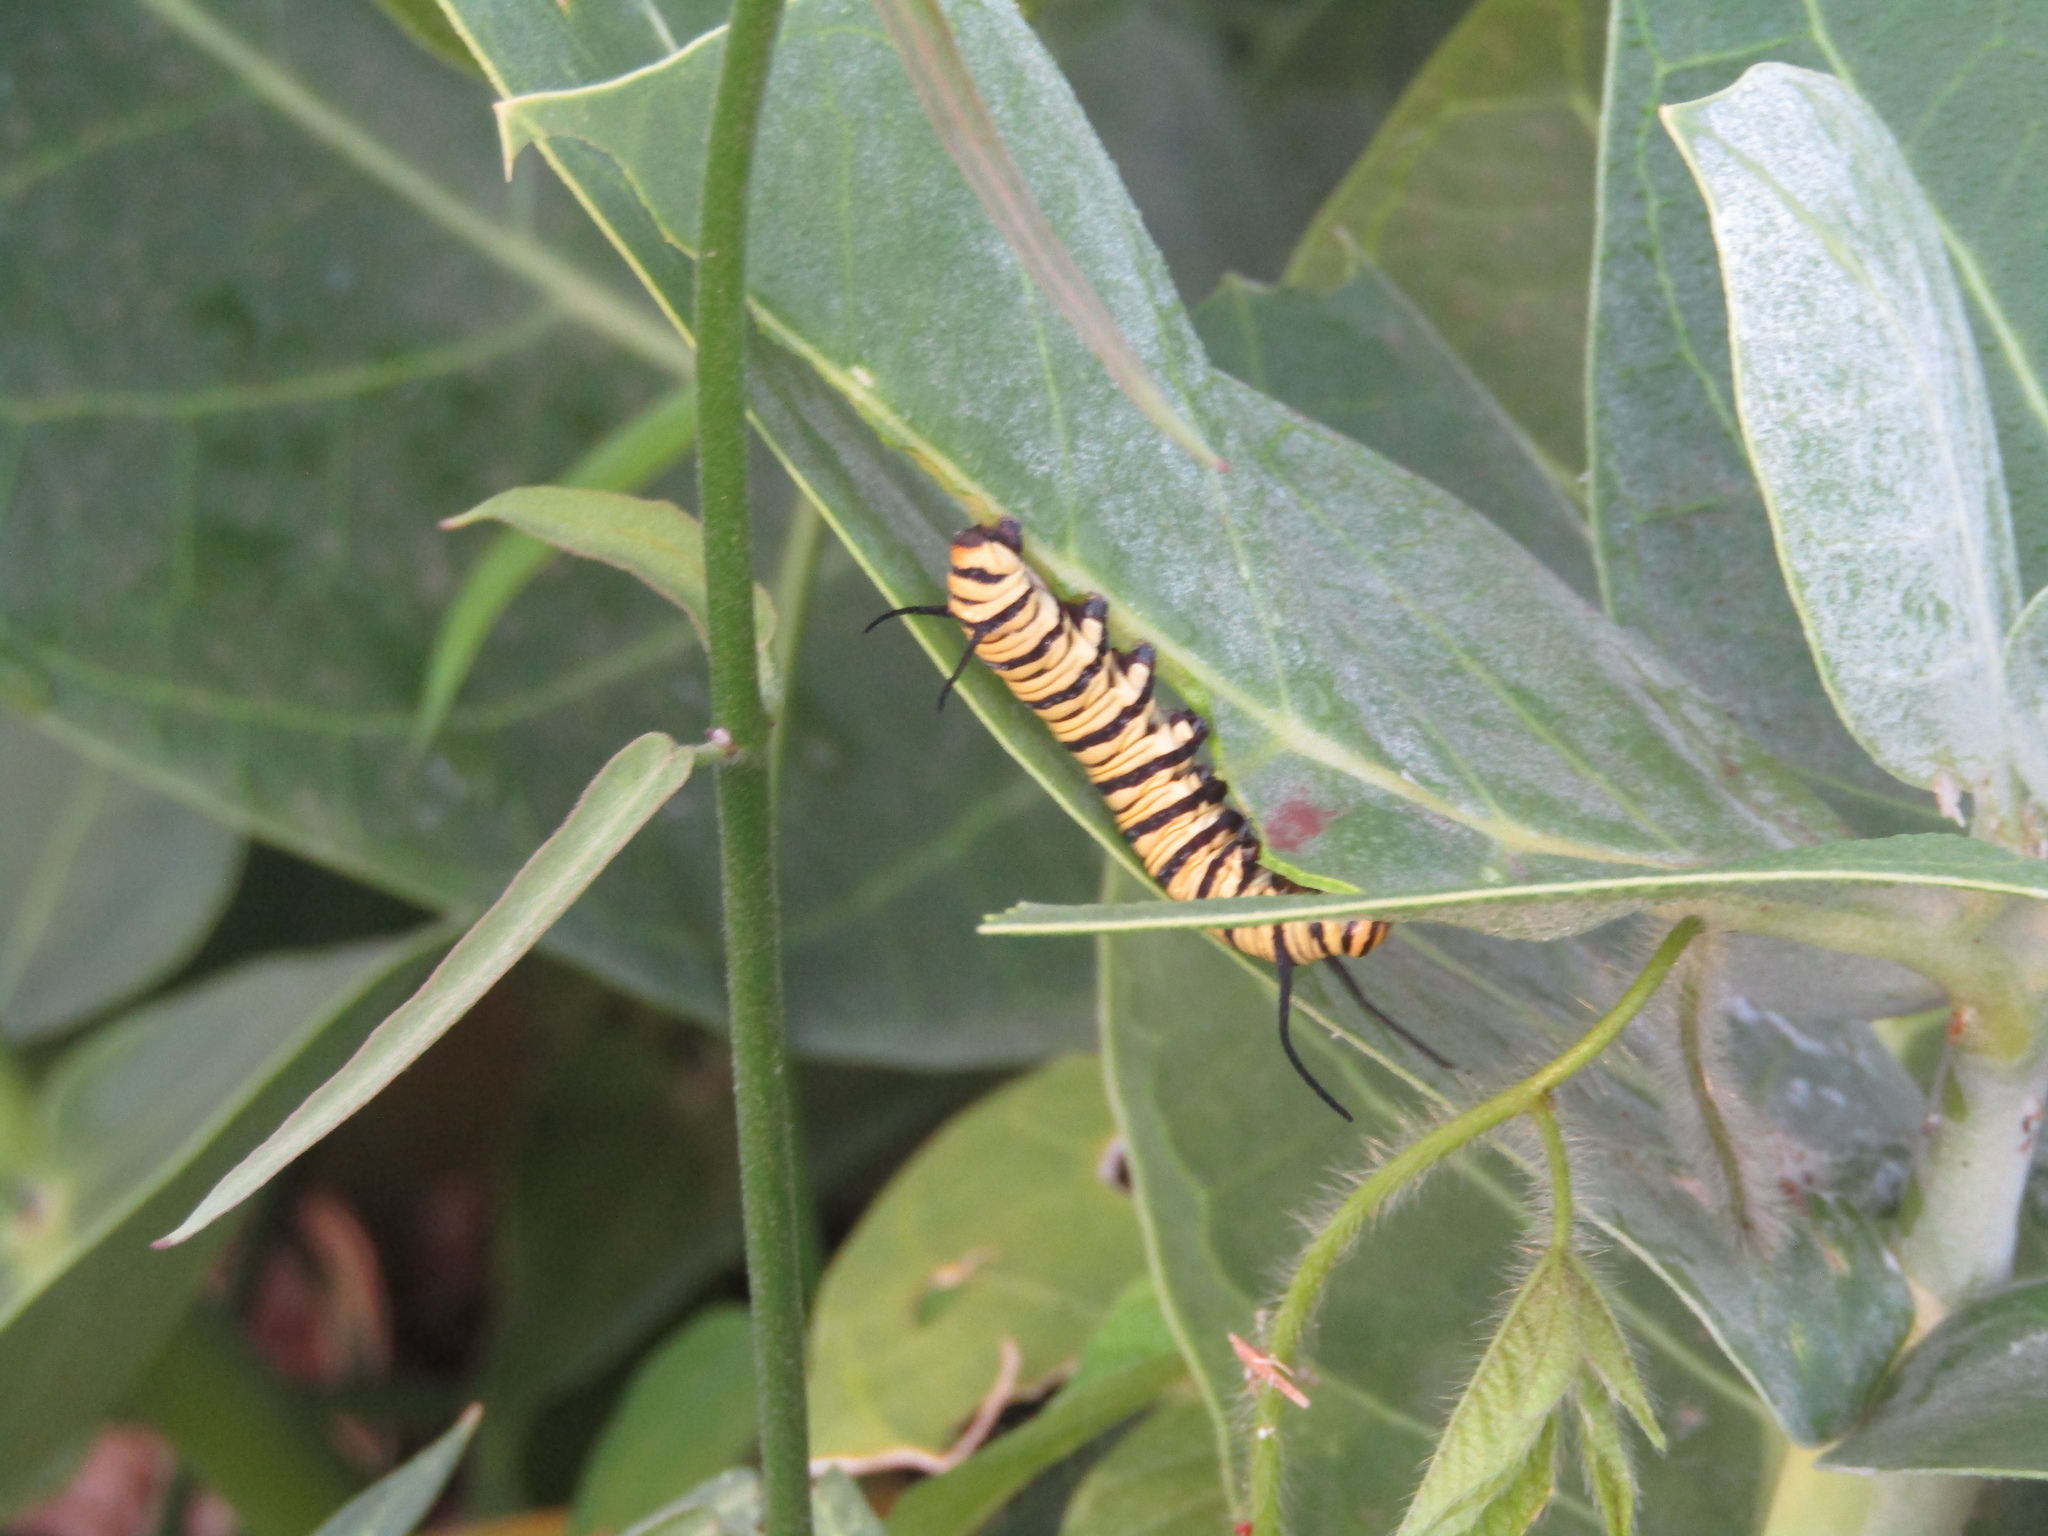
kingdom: Animalia
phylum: Arthropoda
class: Insecta
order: Lepidoptera
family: Nymphalidae
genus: Danaus
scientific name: Danaus erippus
